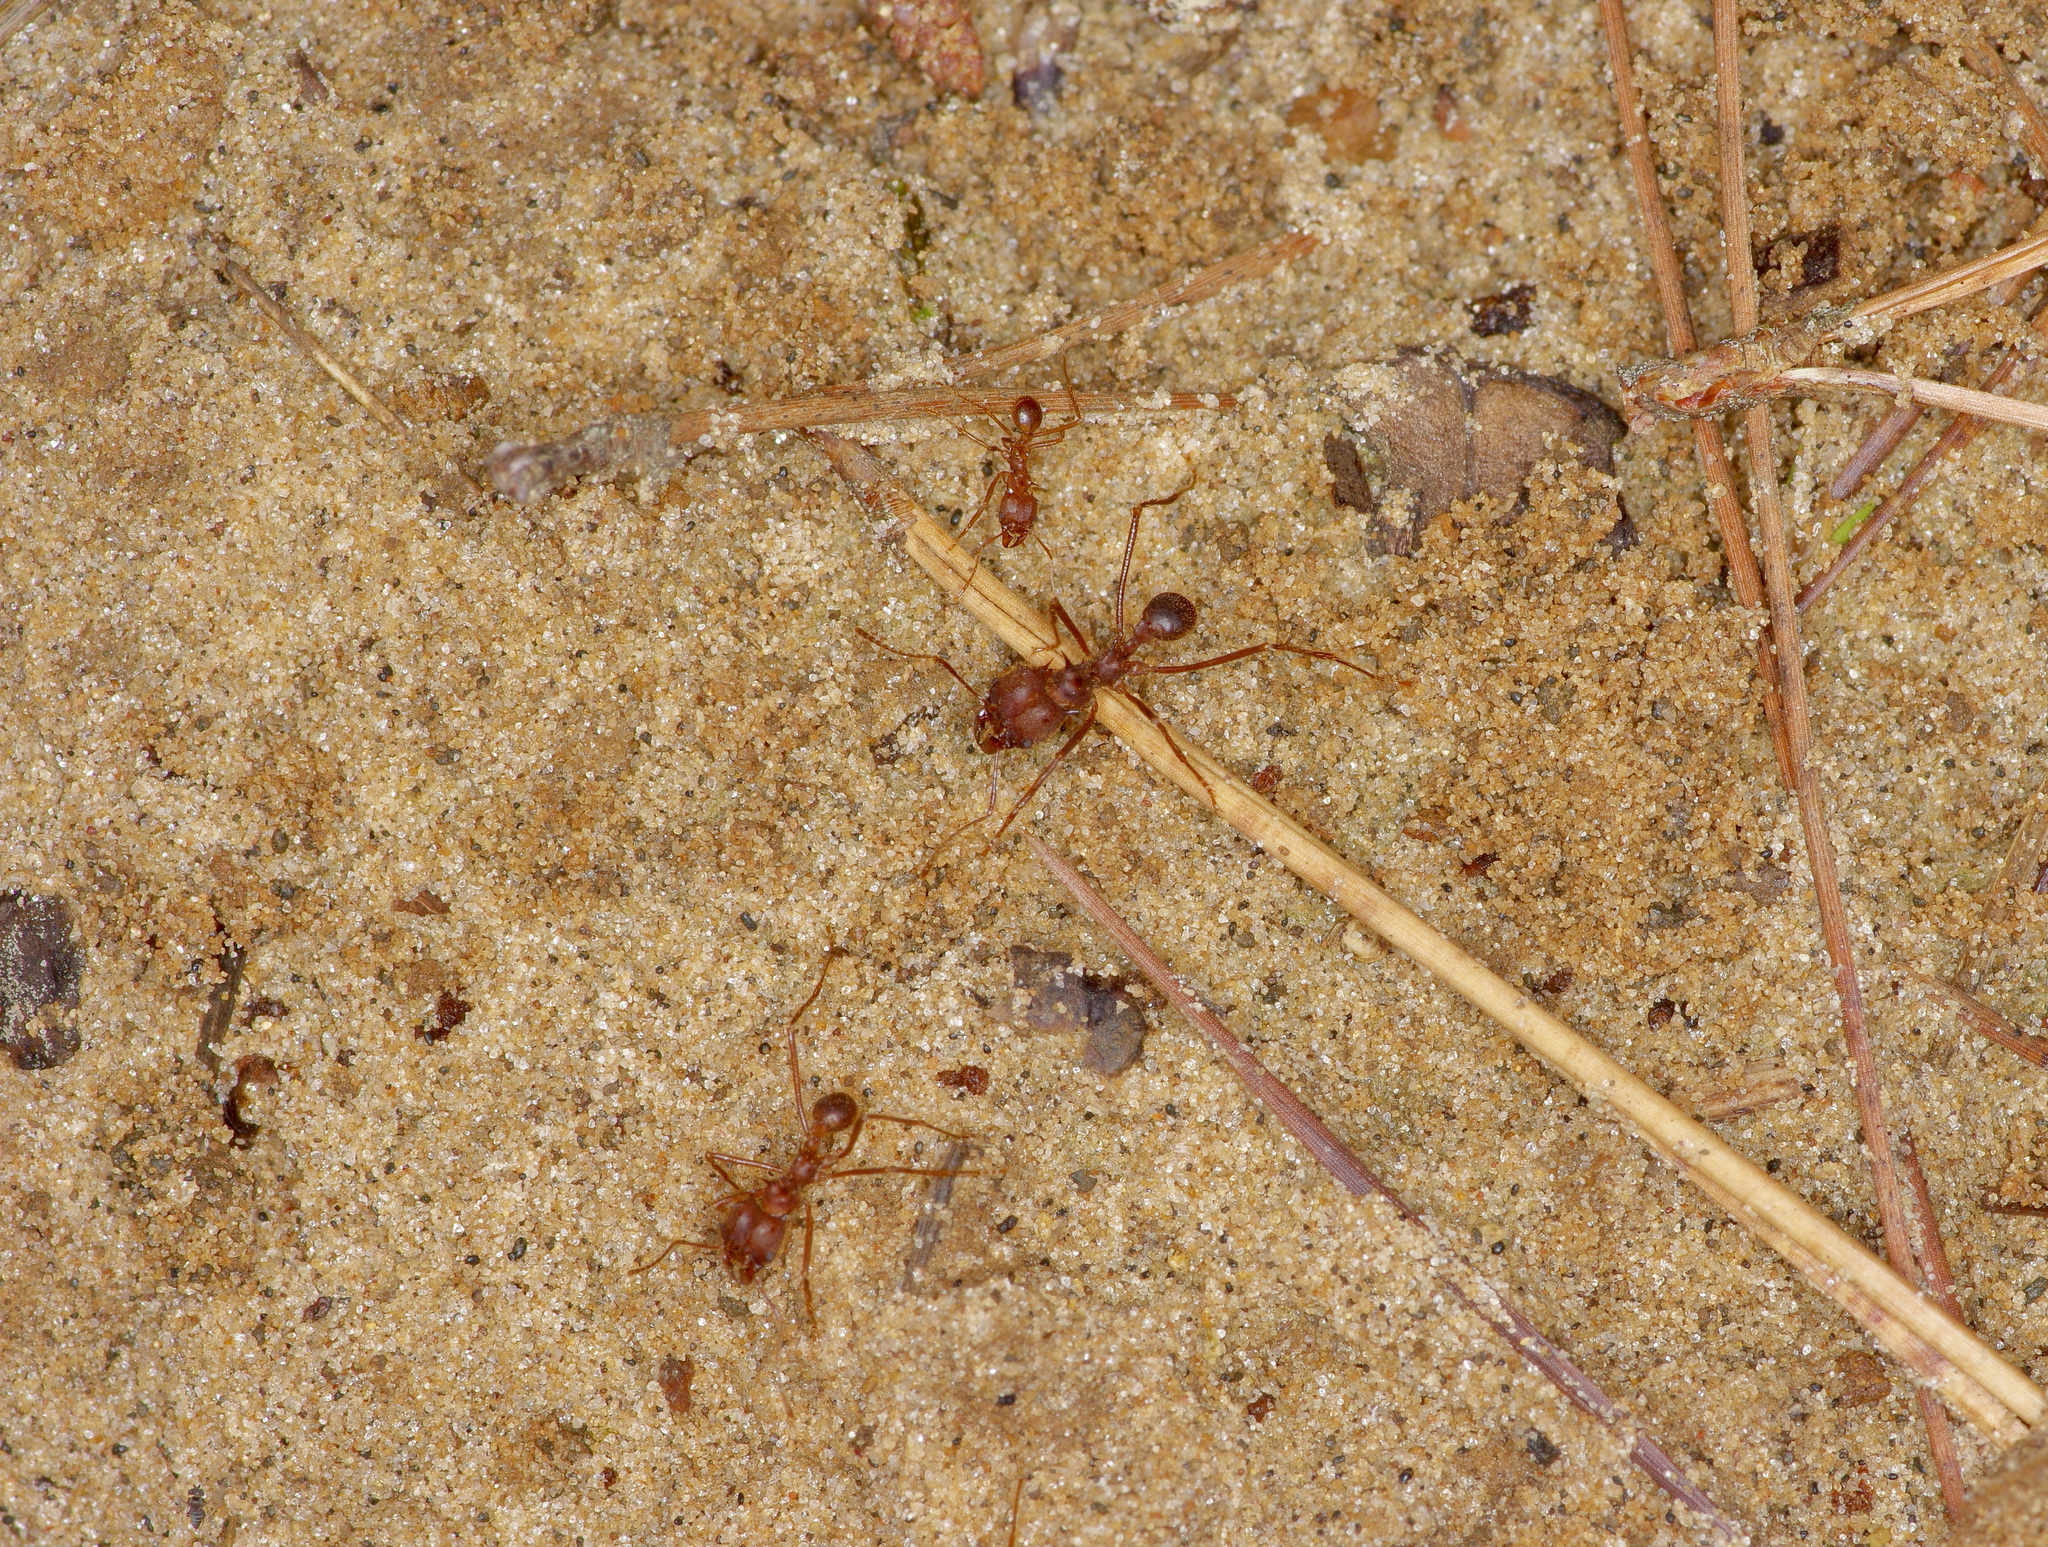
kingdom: Animalia
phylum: Arthropoda
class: Insecta
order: Hymenoptera
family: Formicidae
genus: Atta
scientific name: Atta texana
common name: Texas leafcutting ant
